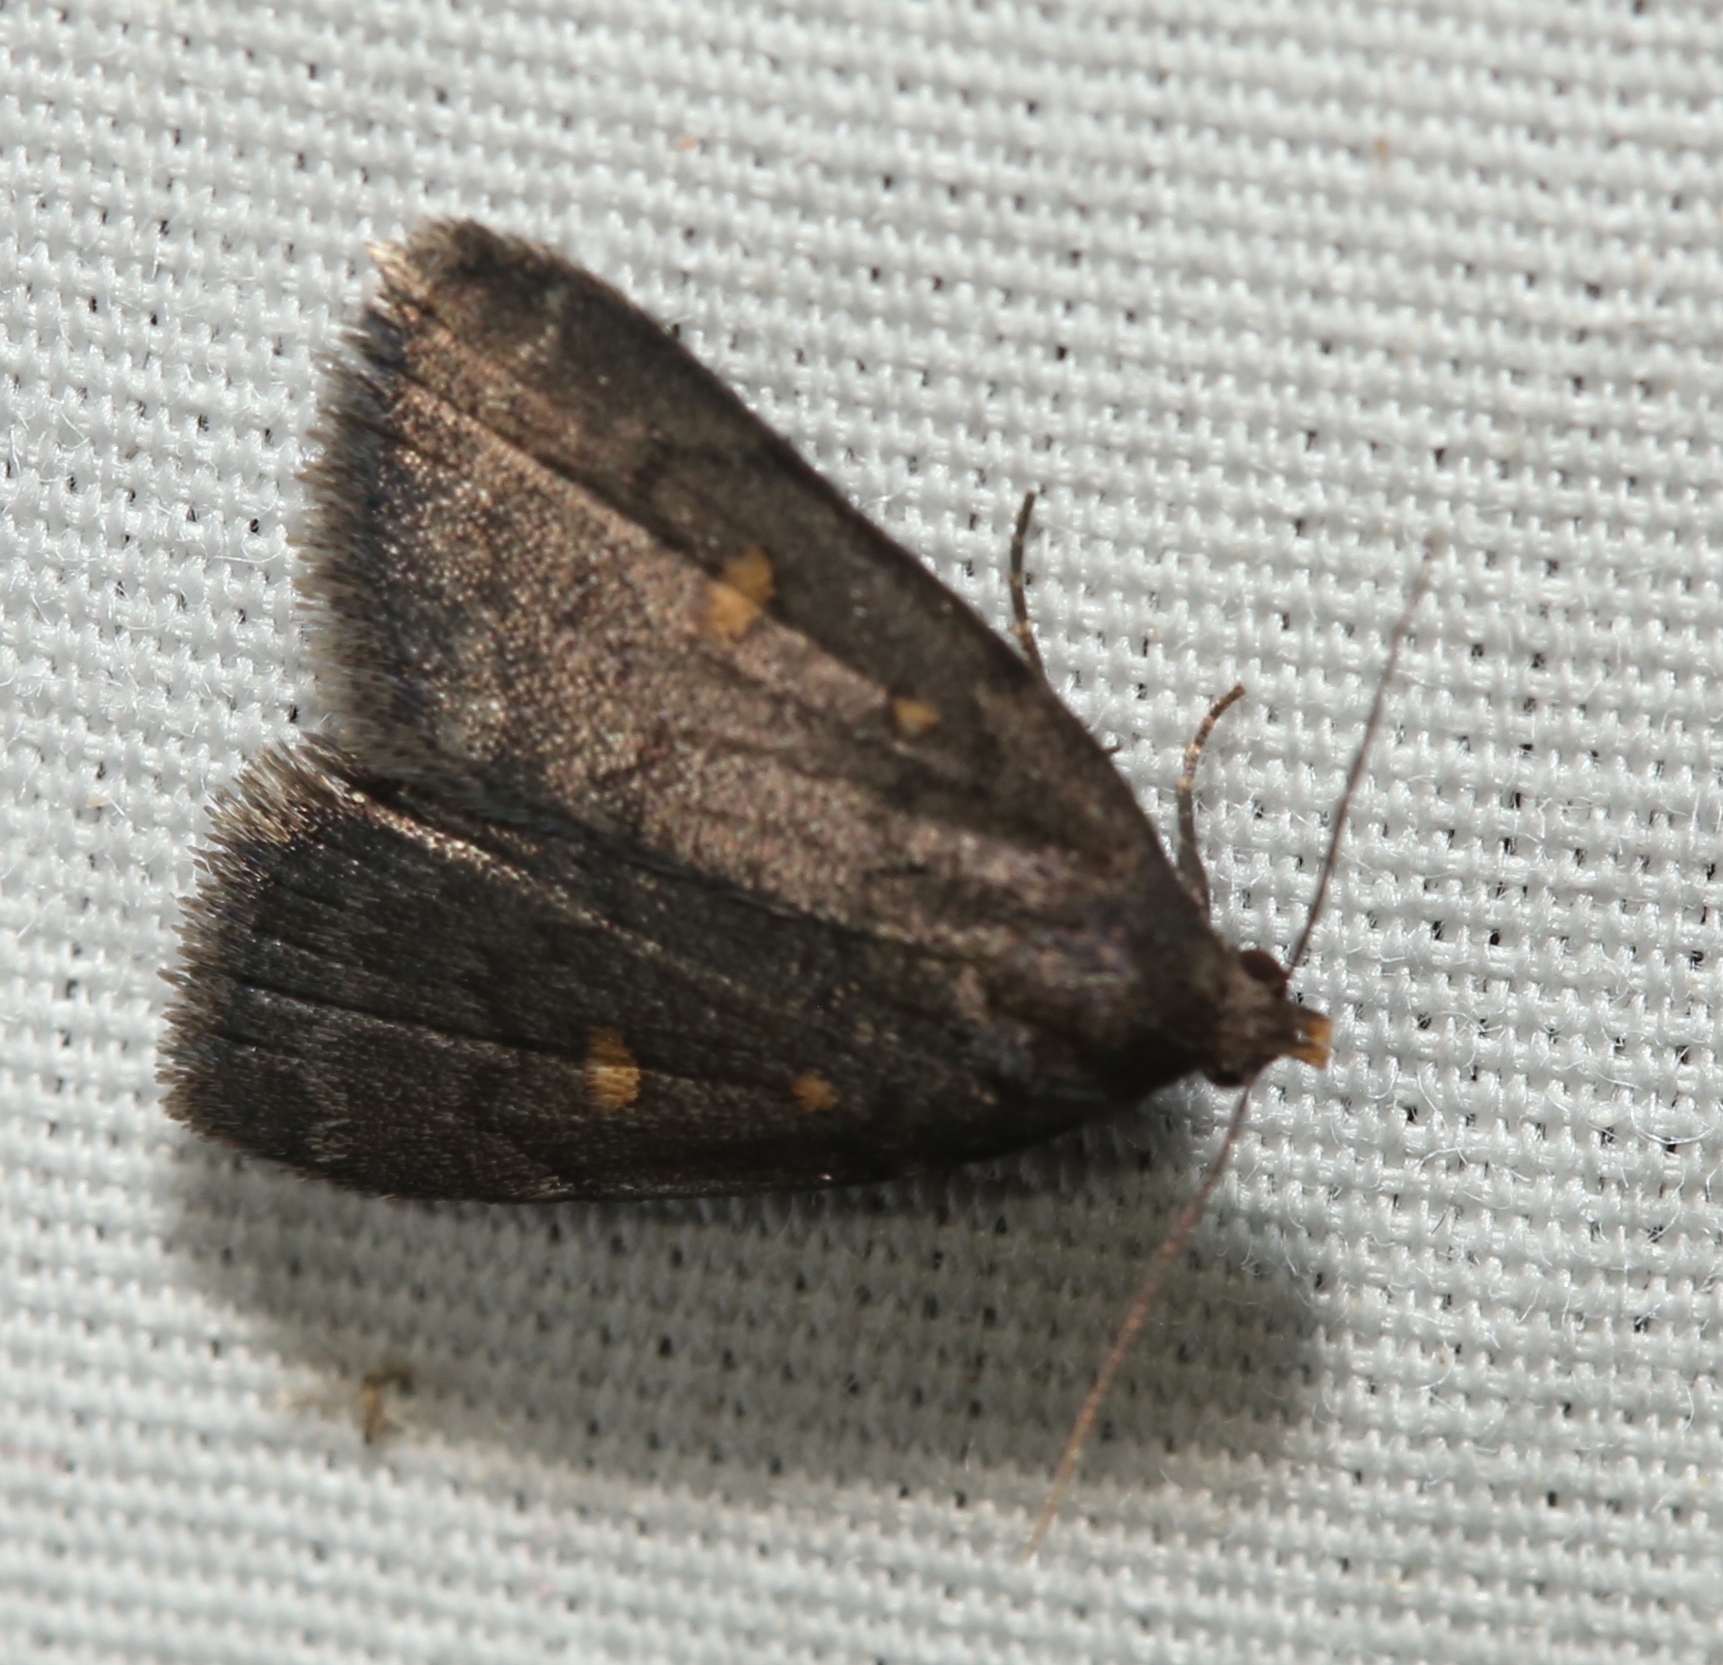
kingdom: Animalia
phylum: Arthropoda
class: Insecta
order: Lepidoptera
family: Erebidae
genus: Idia
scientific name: Idia diminuendis
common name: Orange-spotted idia moth
